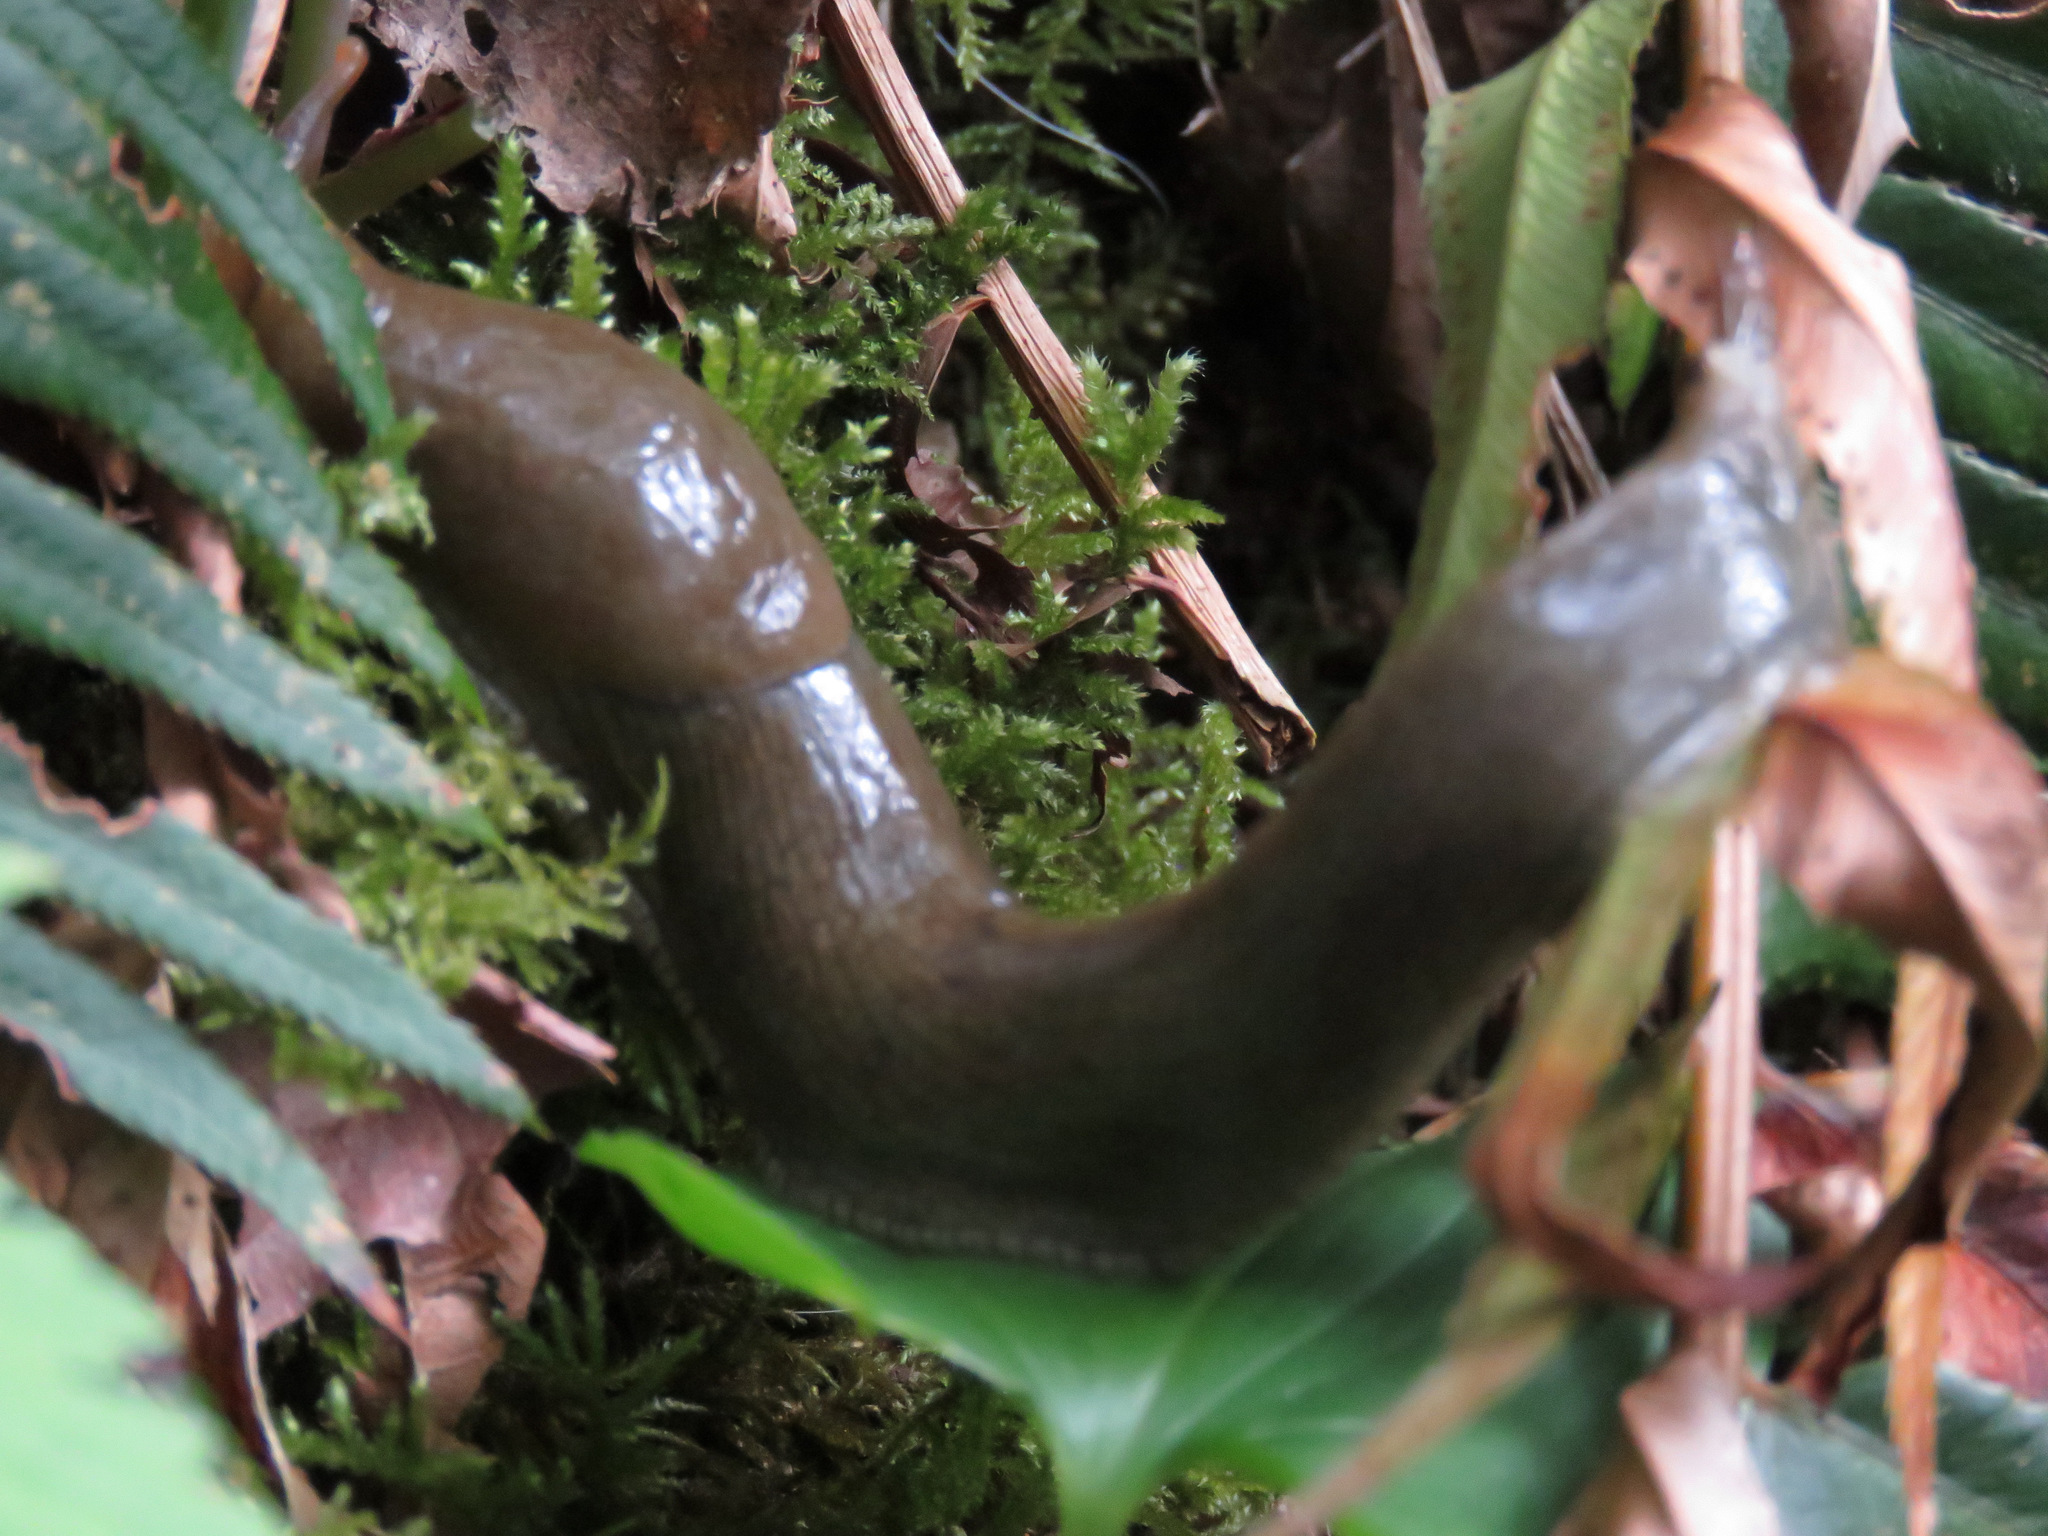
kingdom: Animalia
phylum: Mollusca
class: Gastropoda
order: Stylommatophora
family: Ariolimacidae
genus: Ariolimax
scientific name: Ariolimax columbianus
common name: Pacific banana slug
